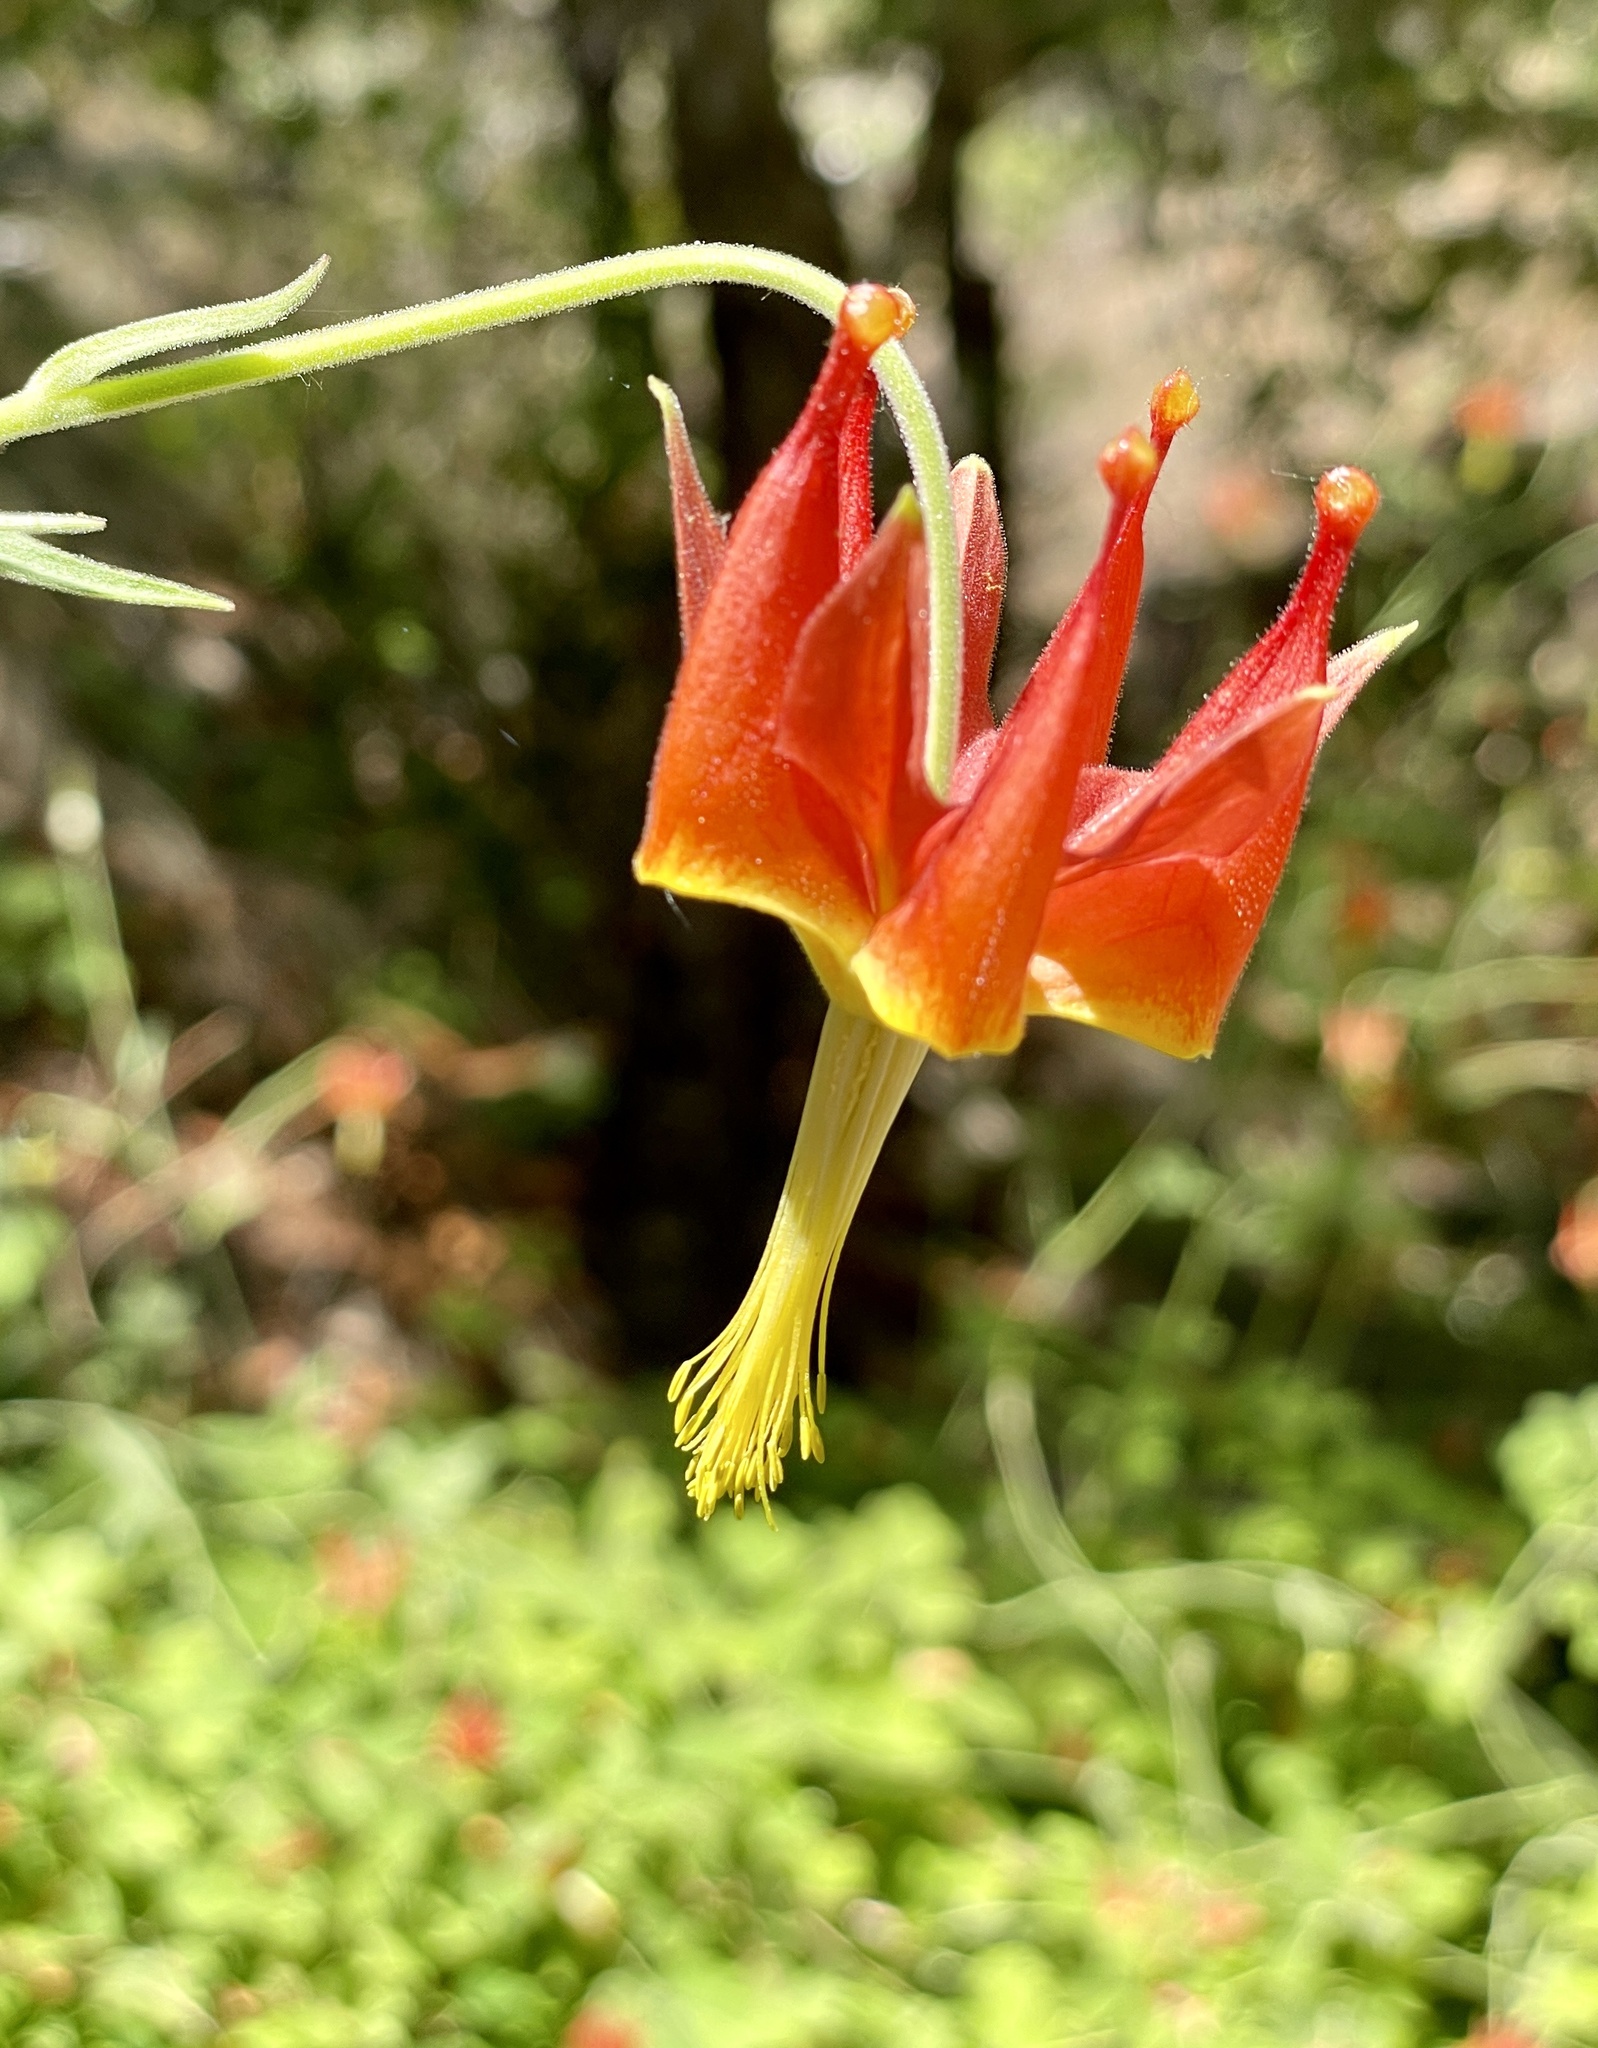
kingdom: Plantae
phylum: Tracheophyta
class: Magnoliopsida
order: Ranunculales
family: Ranunculaceae
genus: Aquilegia
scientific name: Aquilegia eximia
